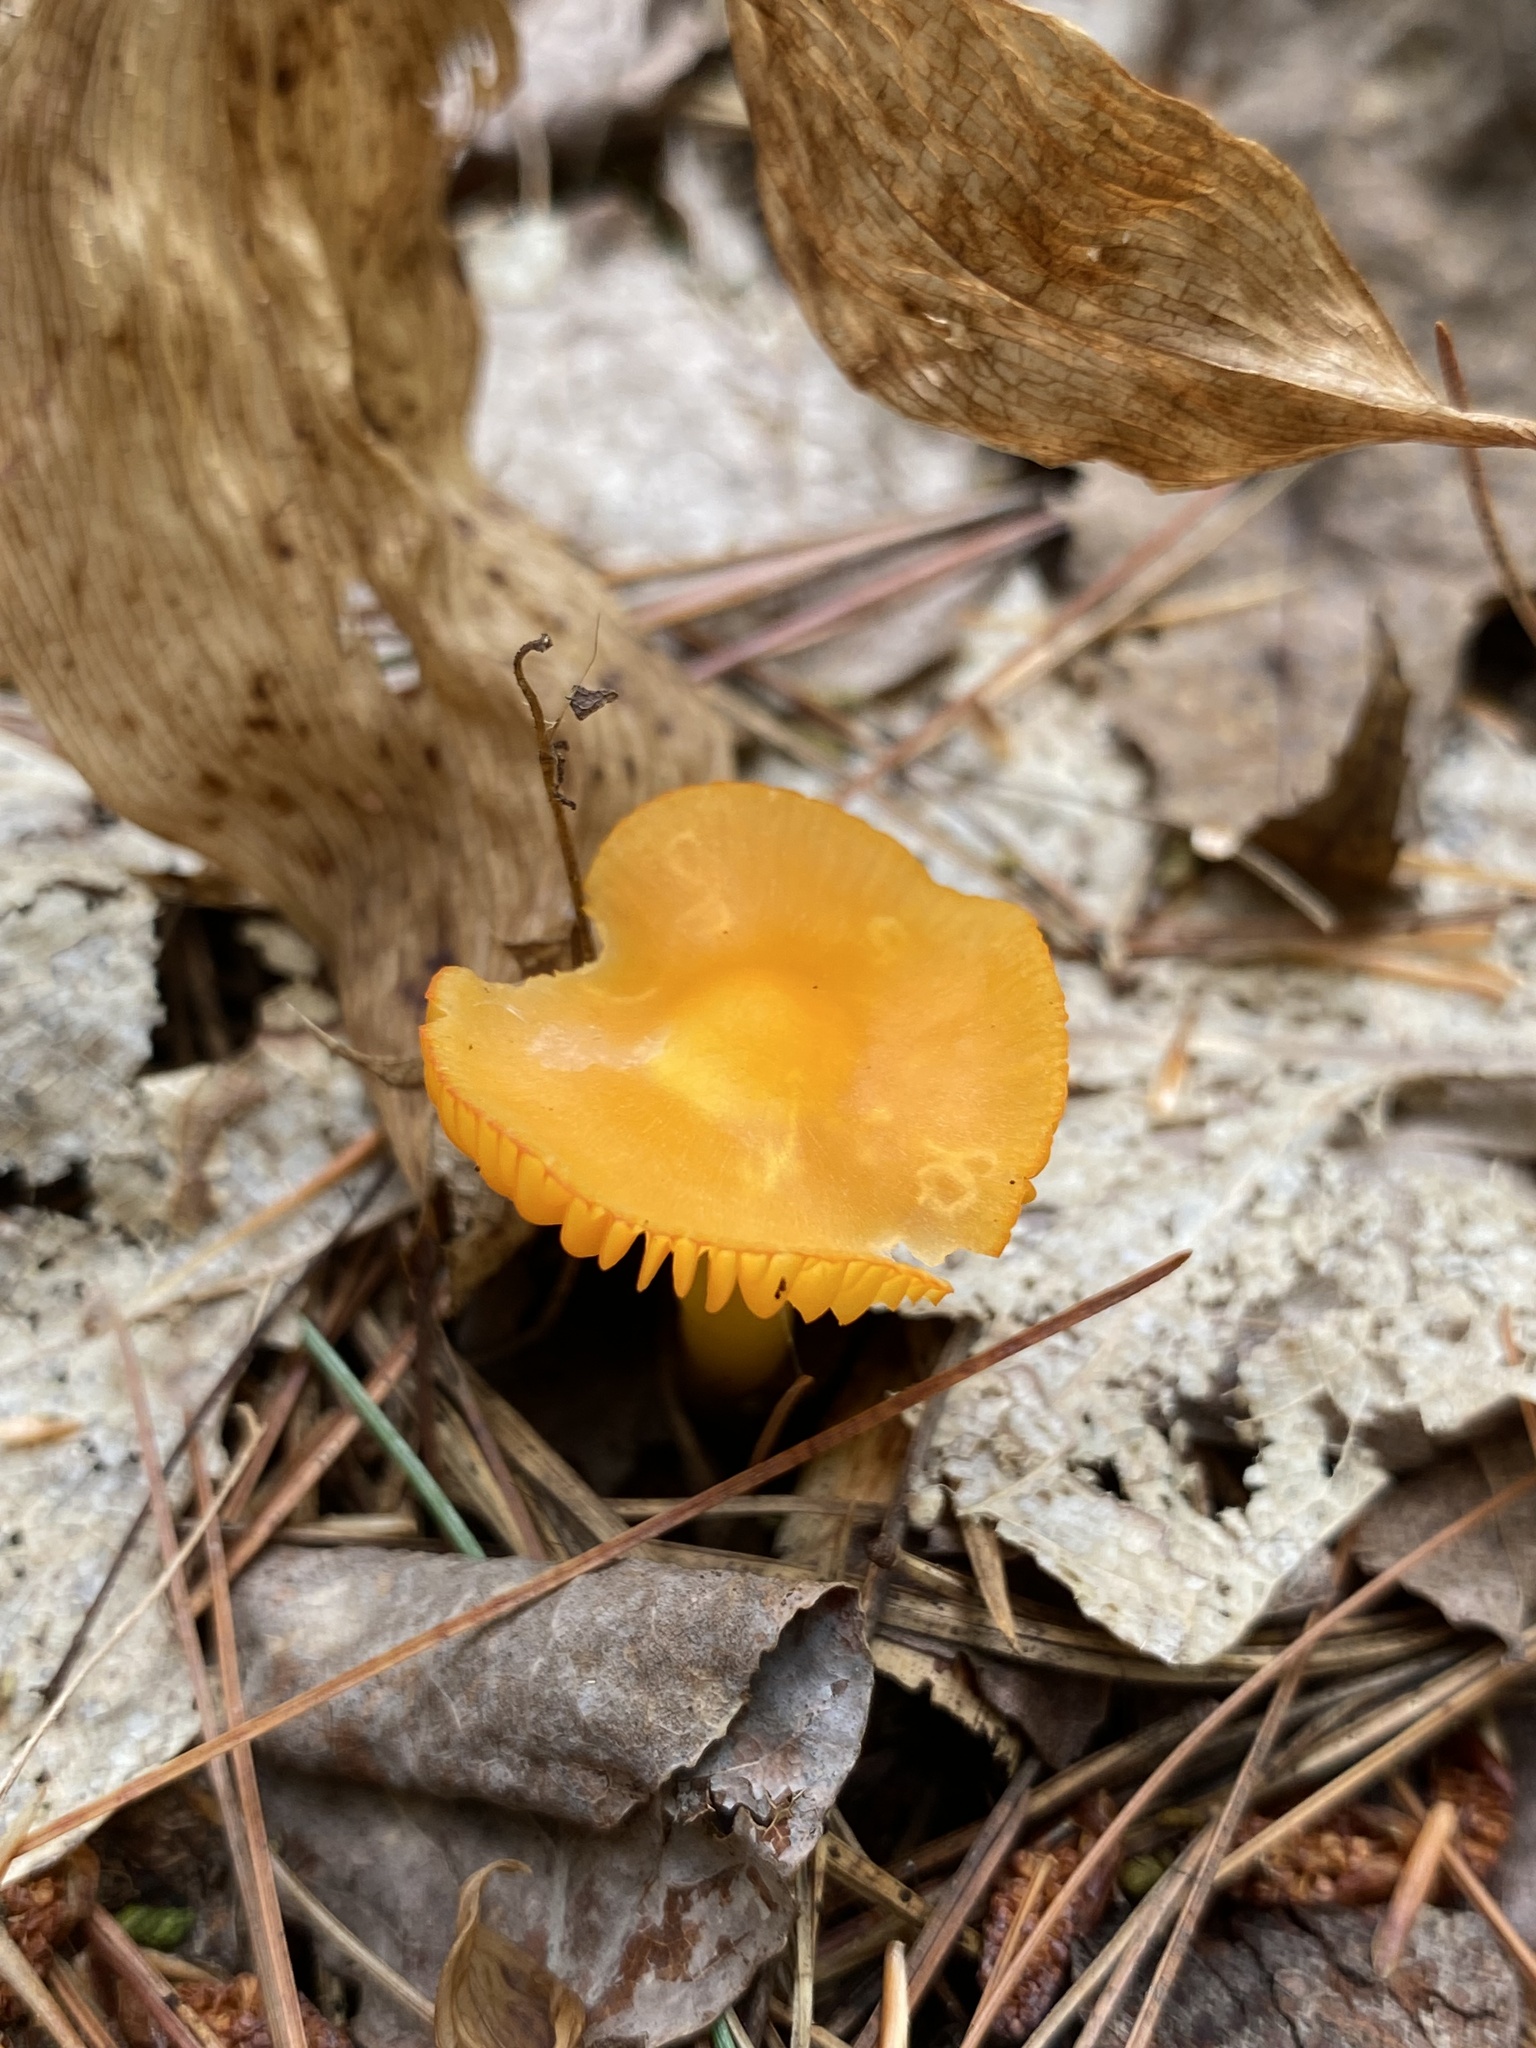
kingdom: Fungi
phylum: Basidiomycota
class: Agaricomycetes
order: Agaricales
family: Hygrophoraceae
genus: Humidicutis
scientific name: Humidicutis marginata
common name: Orange gilled waxcap
